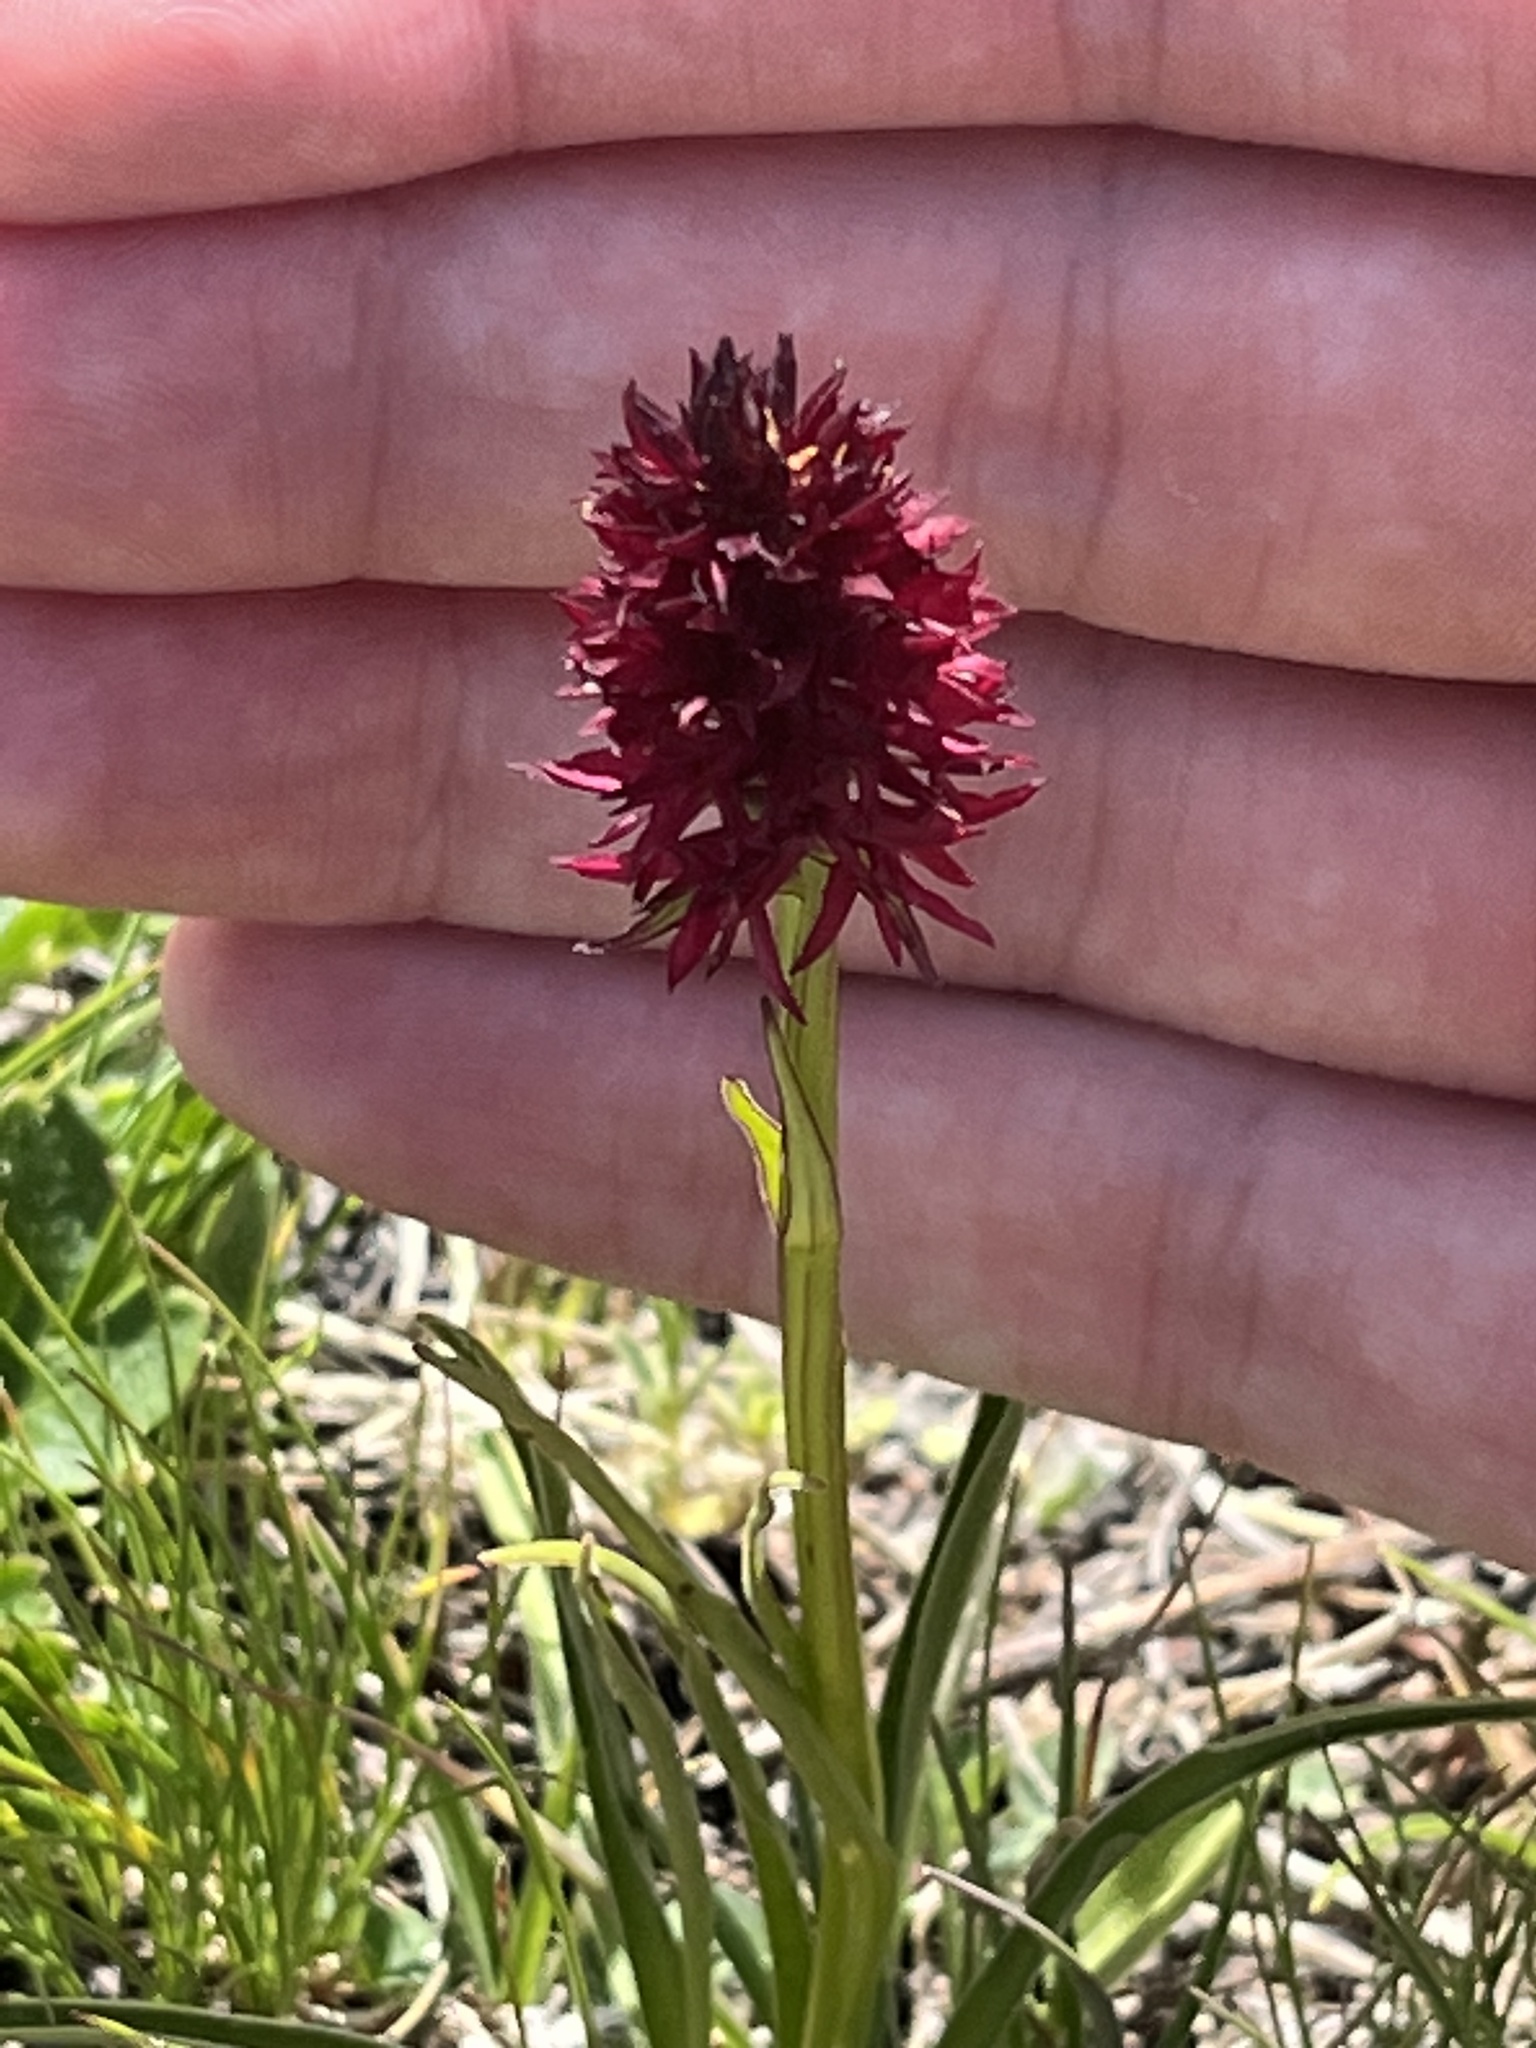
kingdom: Plantae
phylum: Tracheophyta
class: Liliopsida
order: Asparagales
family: Orchidaceae
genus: Gymnadenia
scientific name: Gymnadenia rhellicani
